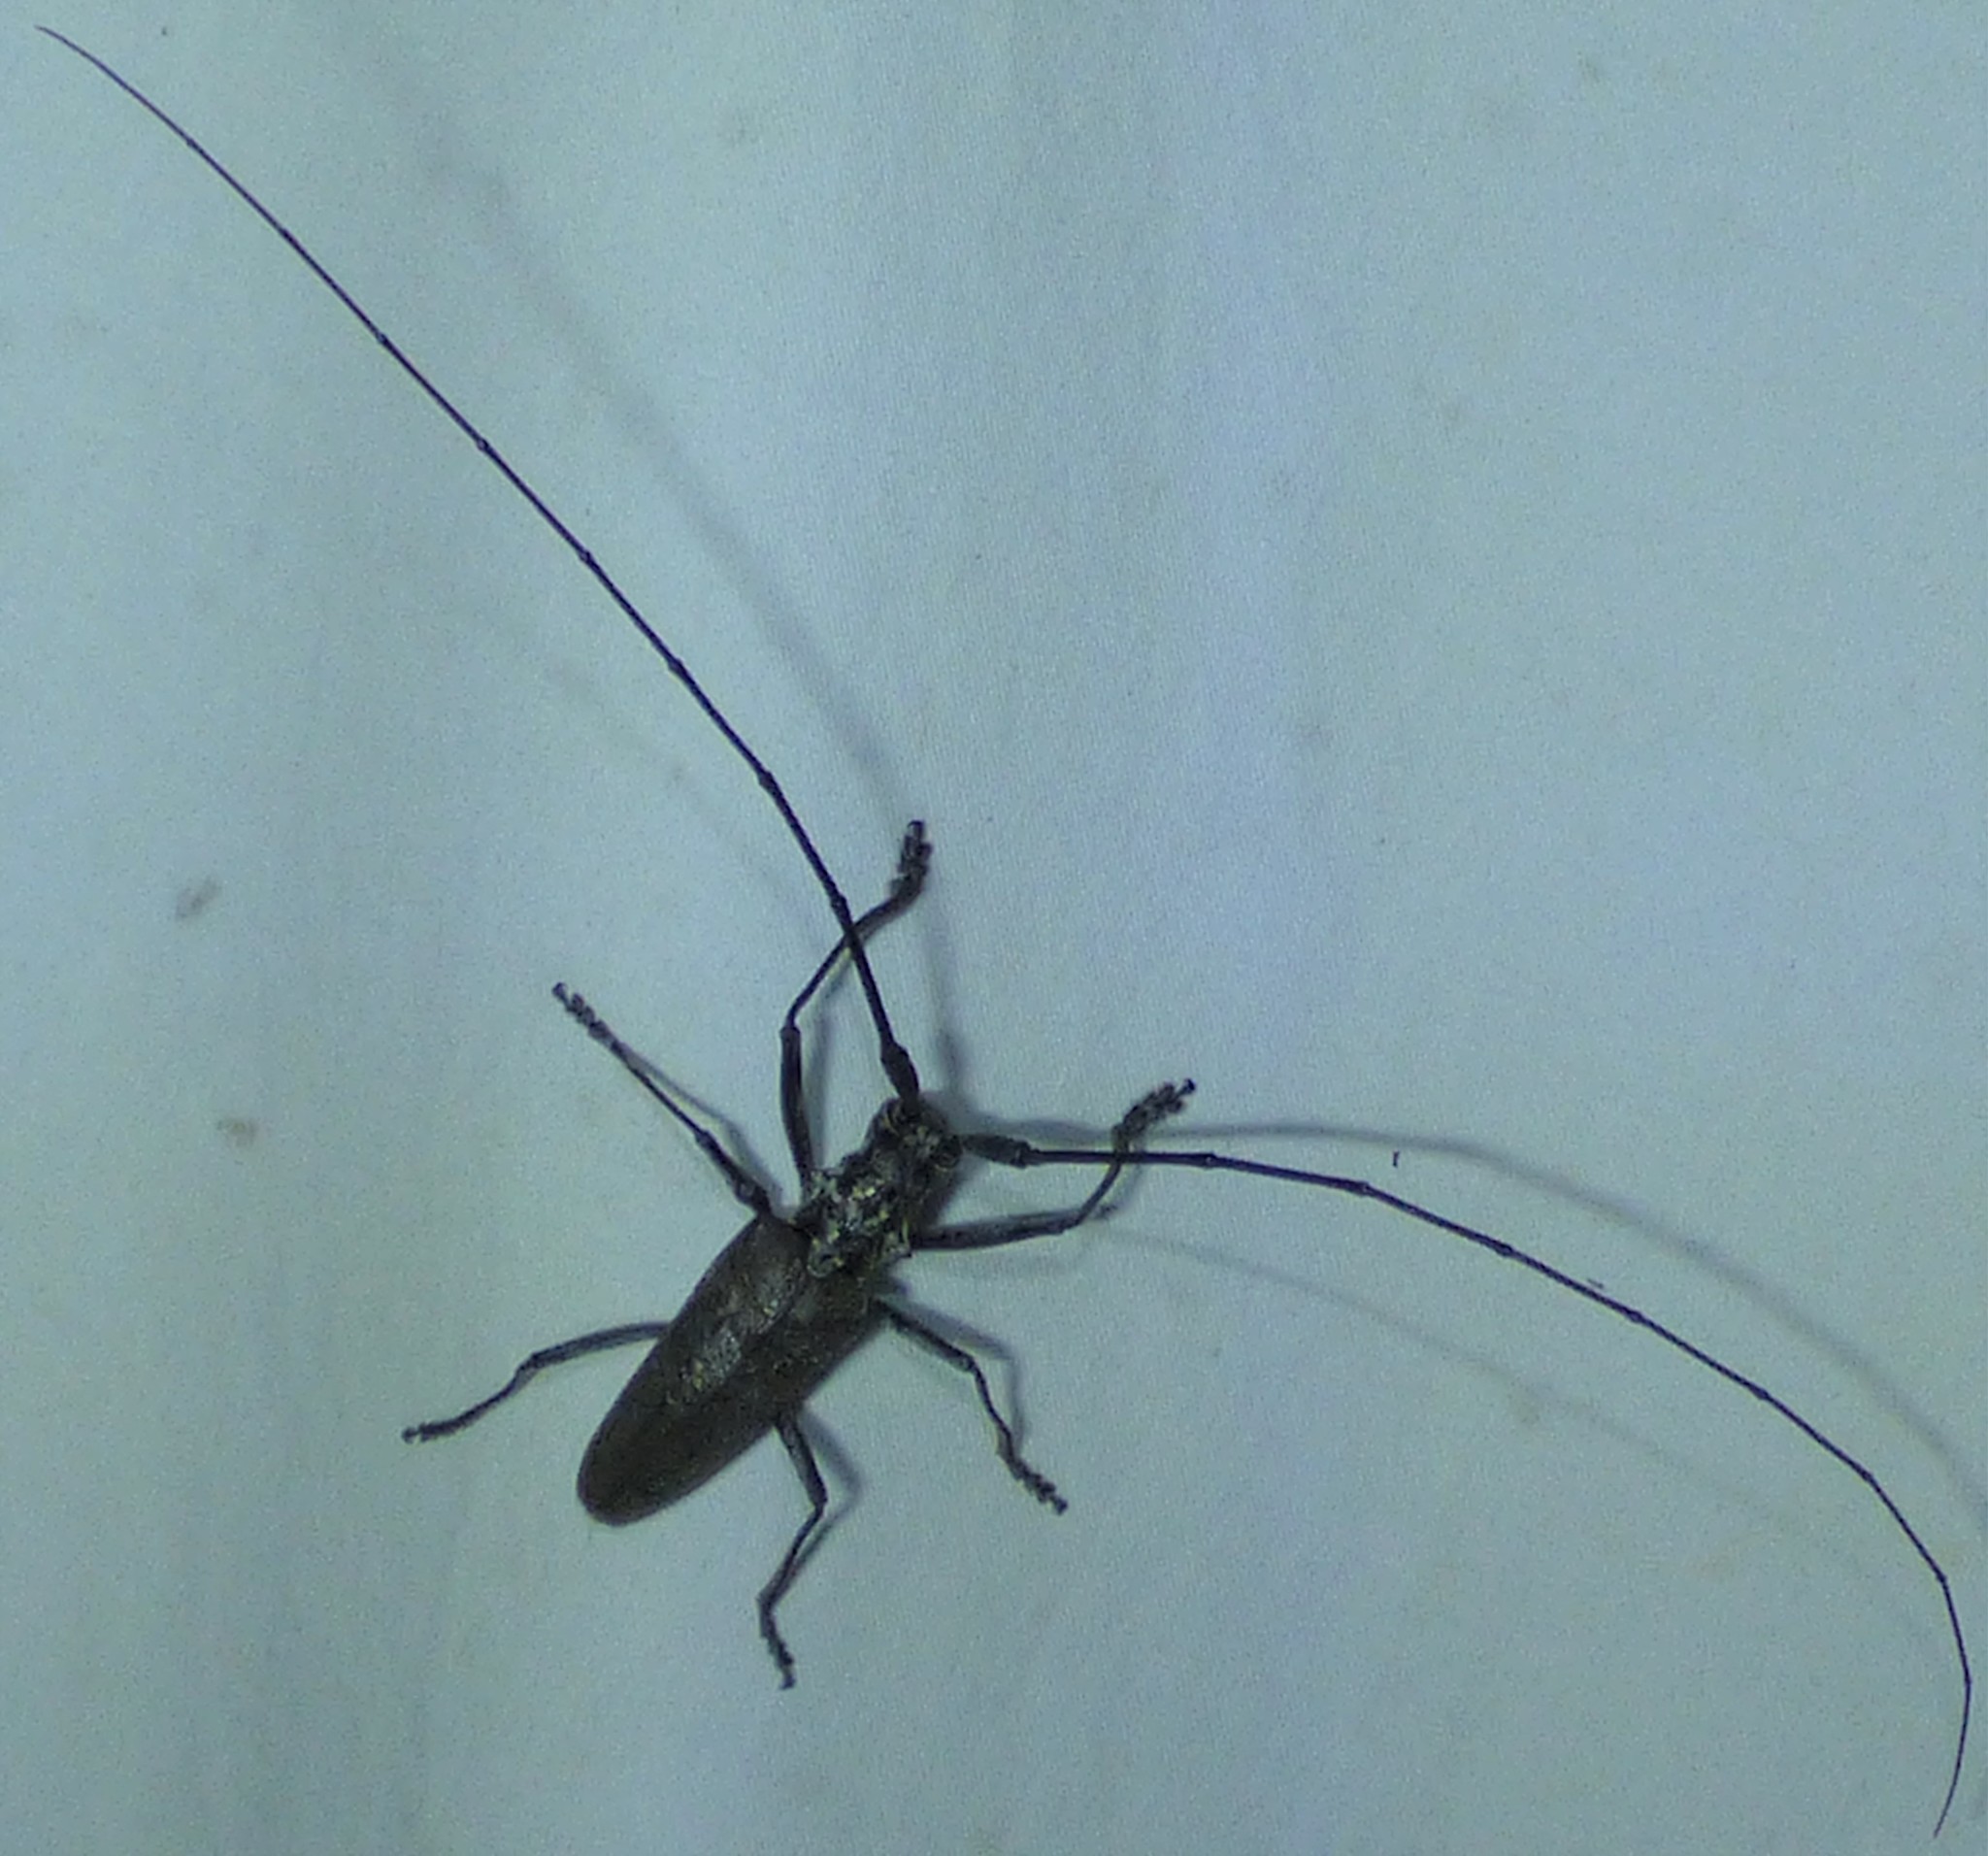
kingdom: Animalia
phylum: Arthropoda
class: Insecta
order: Coleoptera
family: Cerambycidae
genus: Monochamus
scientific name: Monochamus notatus
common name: Northeastern pine sawyer beetle
